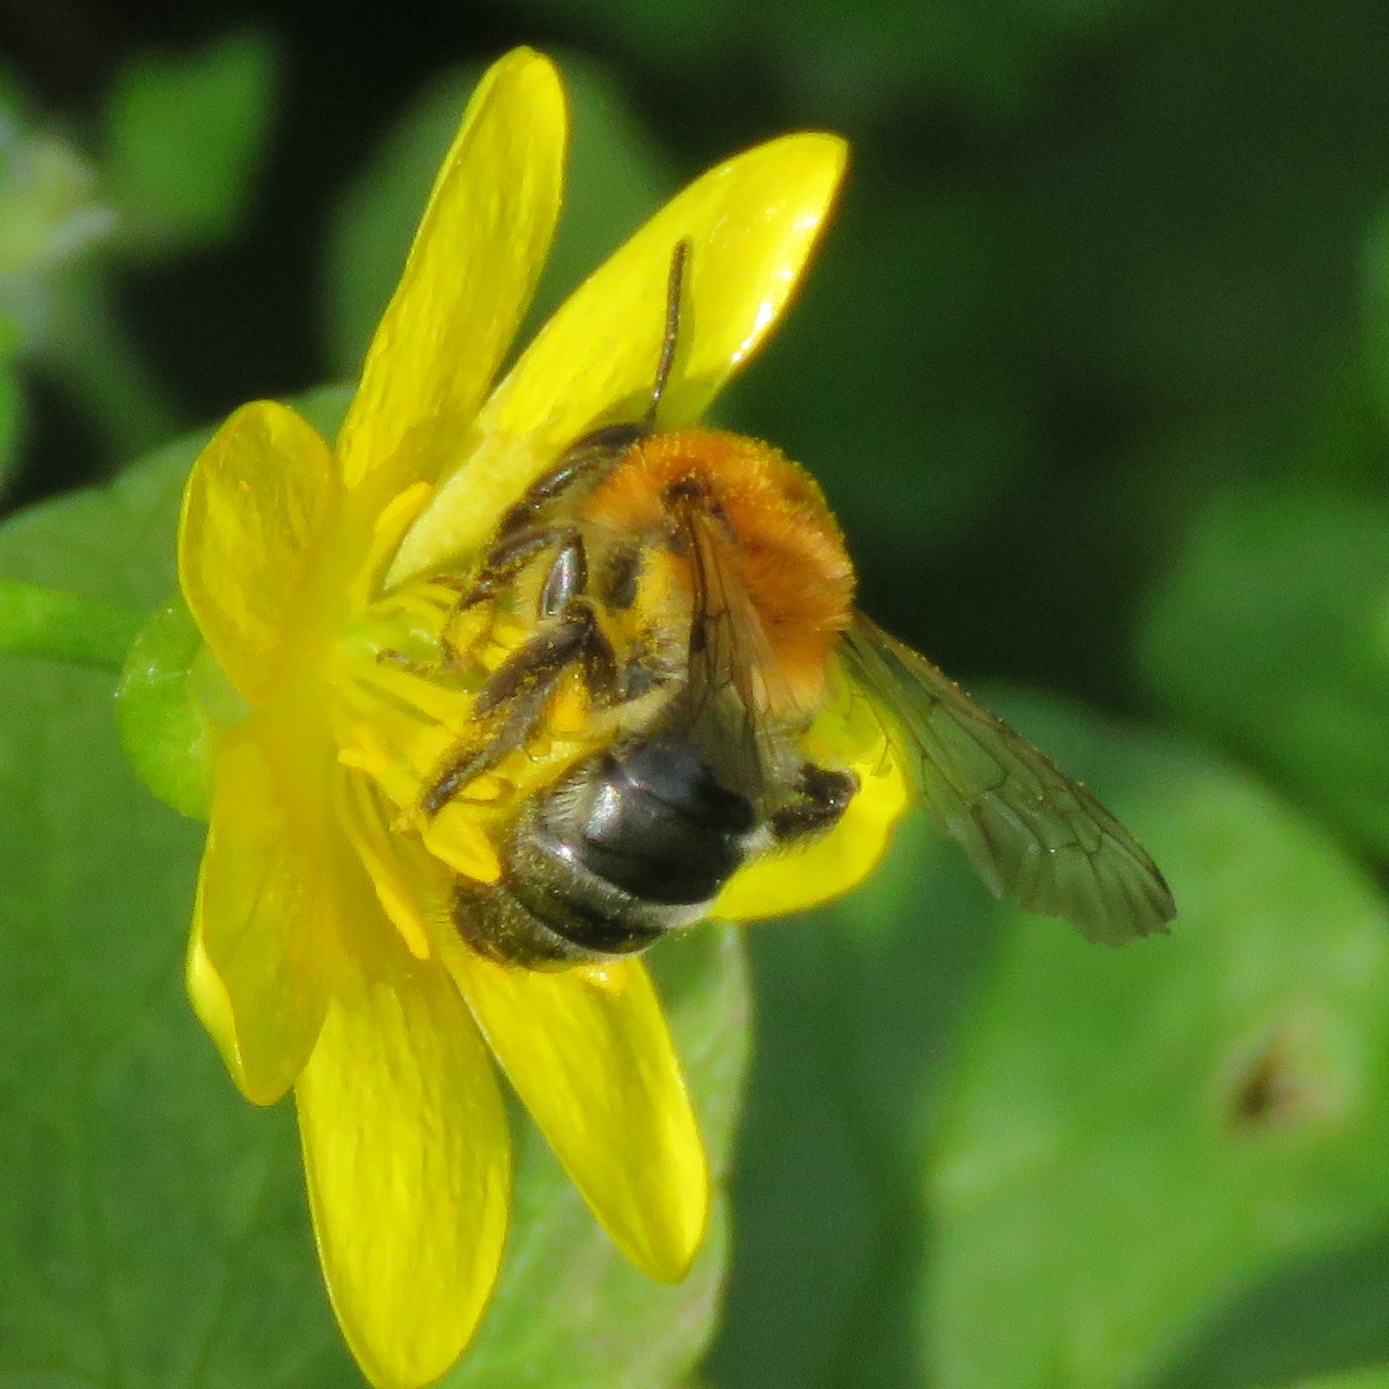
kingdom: Animalia
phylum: Arthropoda
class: Insecta
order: Hymenoptera
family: Andrenidae
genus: Andrena
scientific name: Andrena nitida
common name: Grey-patched mining bee
